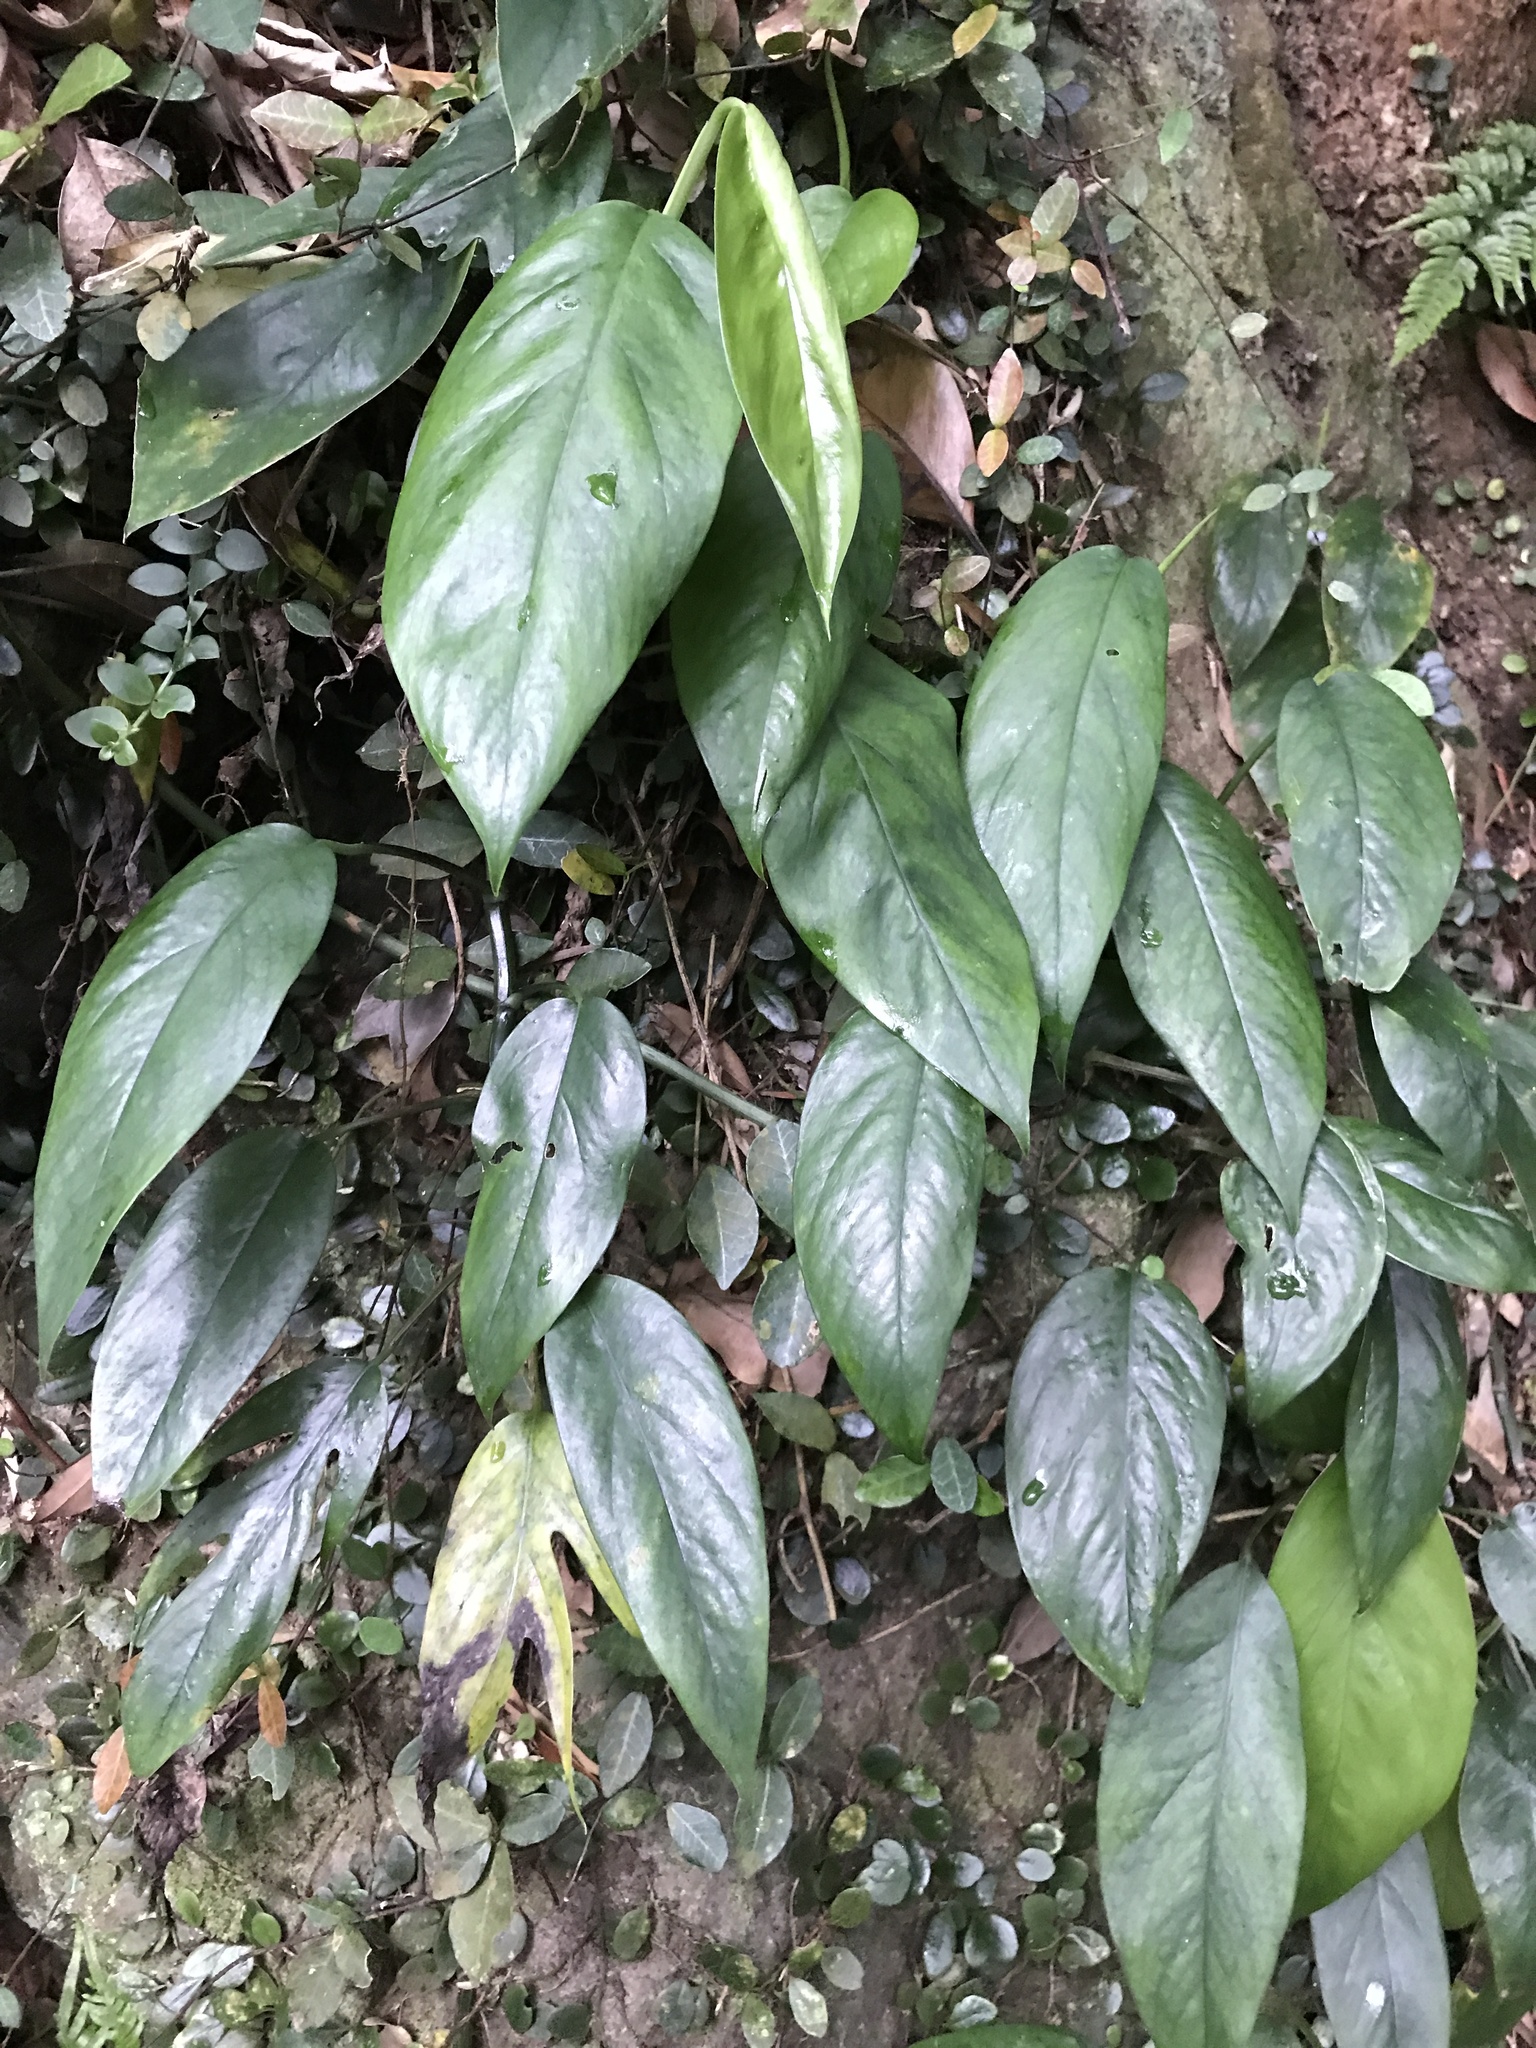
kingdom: Plantae
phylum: Tracheophyta
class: Liliopsida
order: Alismatales
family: Araceae
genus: Epipremnum
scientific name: Epipremnum pinnatum
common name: Centipede tongavine
